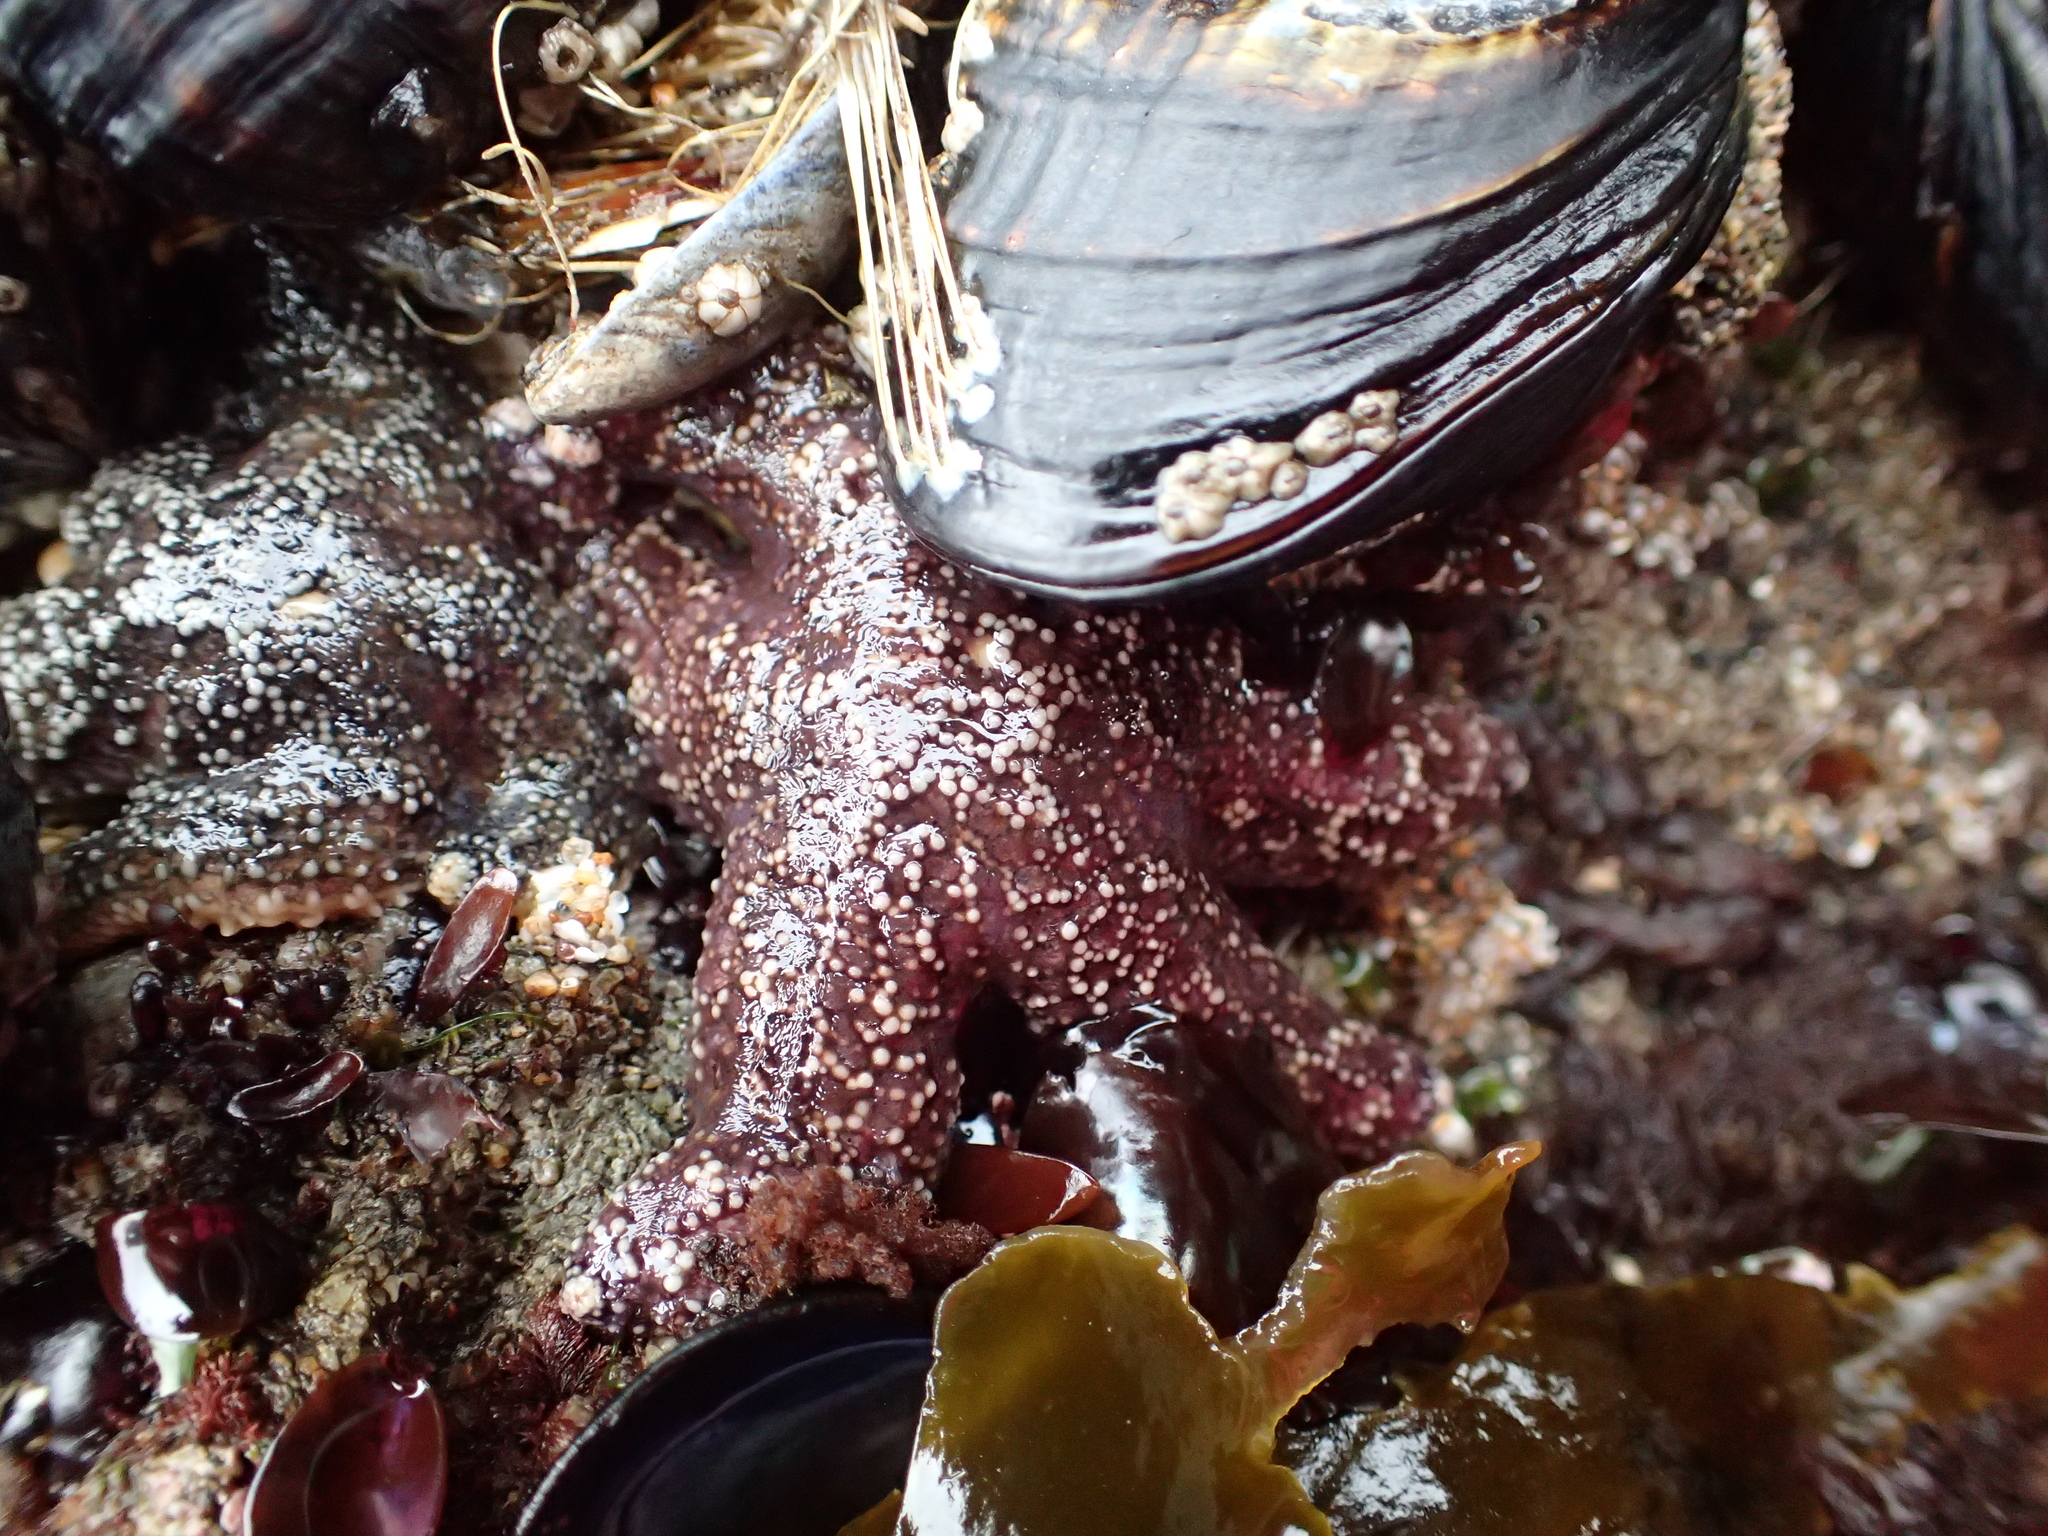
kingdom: Animalia
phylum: Echinodermata
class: Asteroidea
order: Forcipulatida
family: Asteriidae
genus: Pisaster
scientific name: Pisaster ochraceus
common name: Ochre stars
